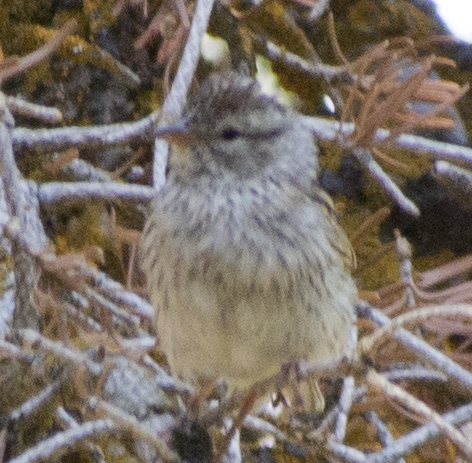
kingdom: Animalia
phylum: Chordata
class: Aves
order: Passeriformes
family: Passerellidae
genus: Spizella
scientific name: Spizella passerina
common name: Chipping sparrow
